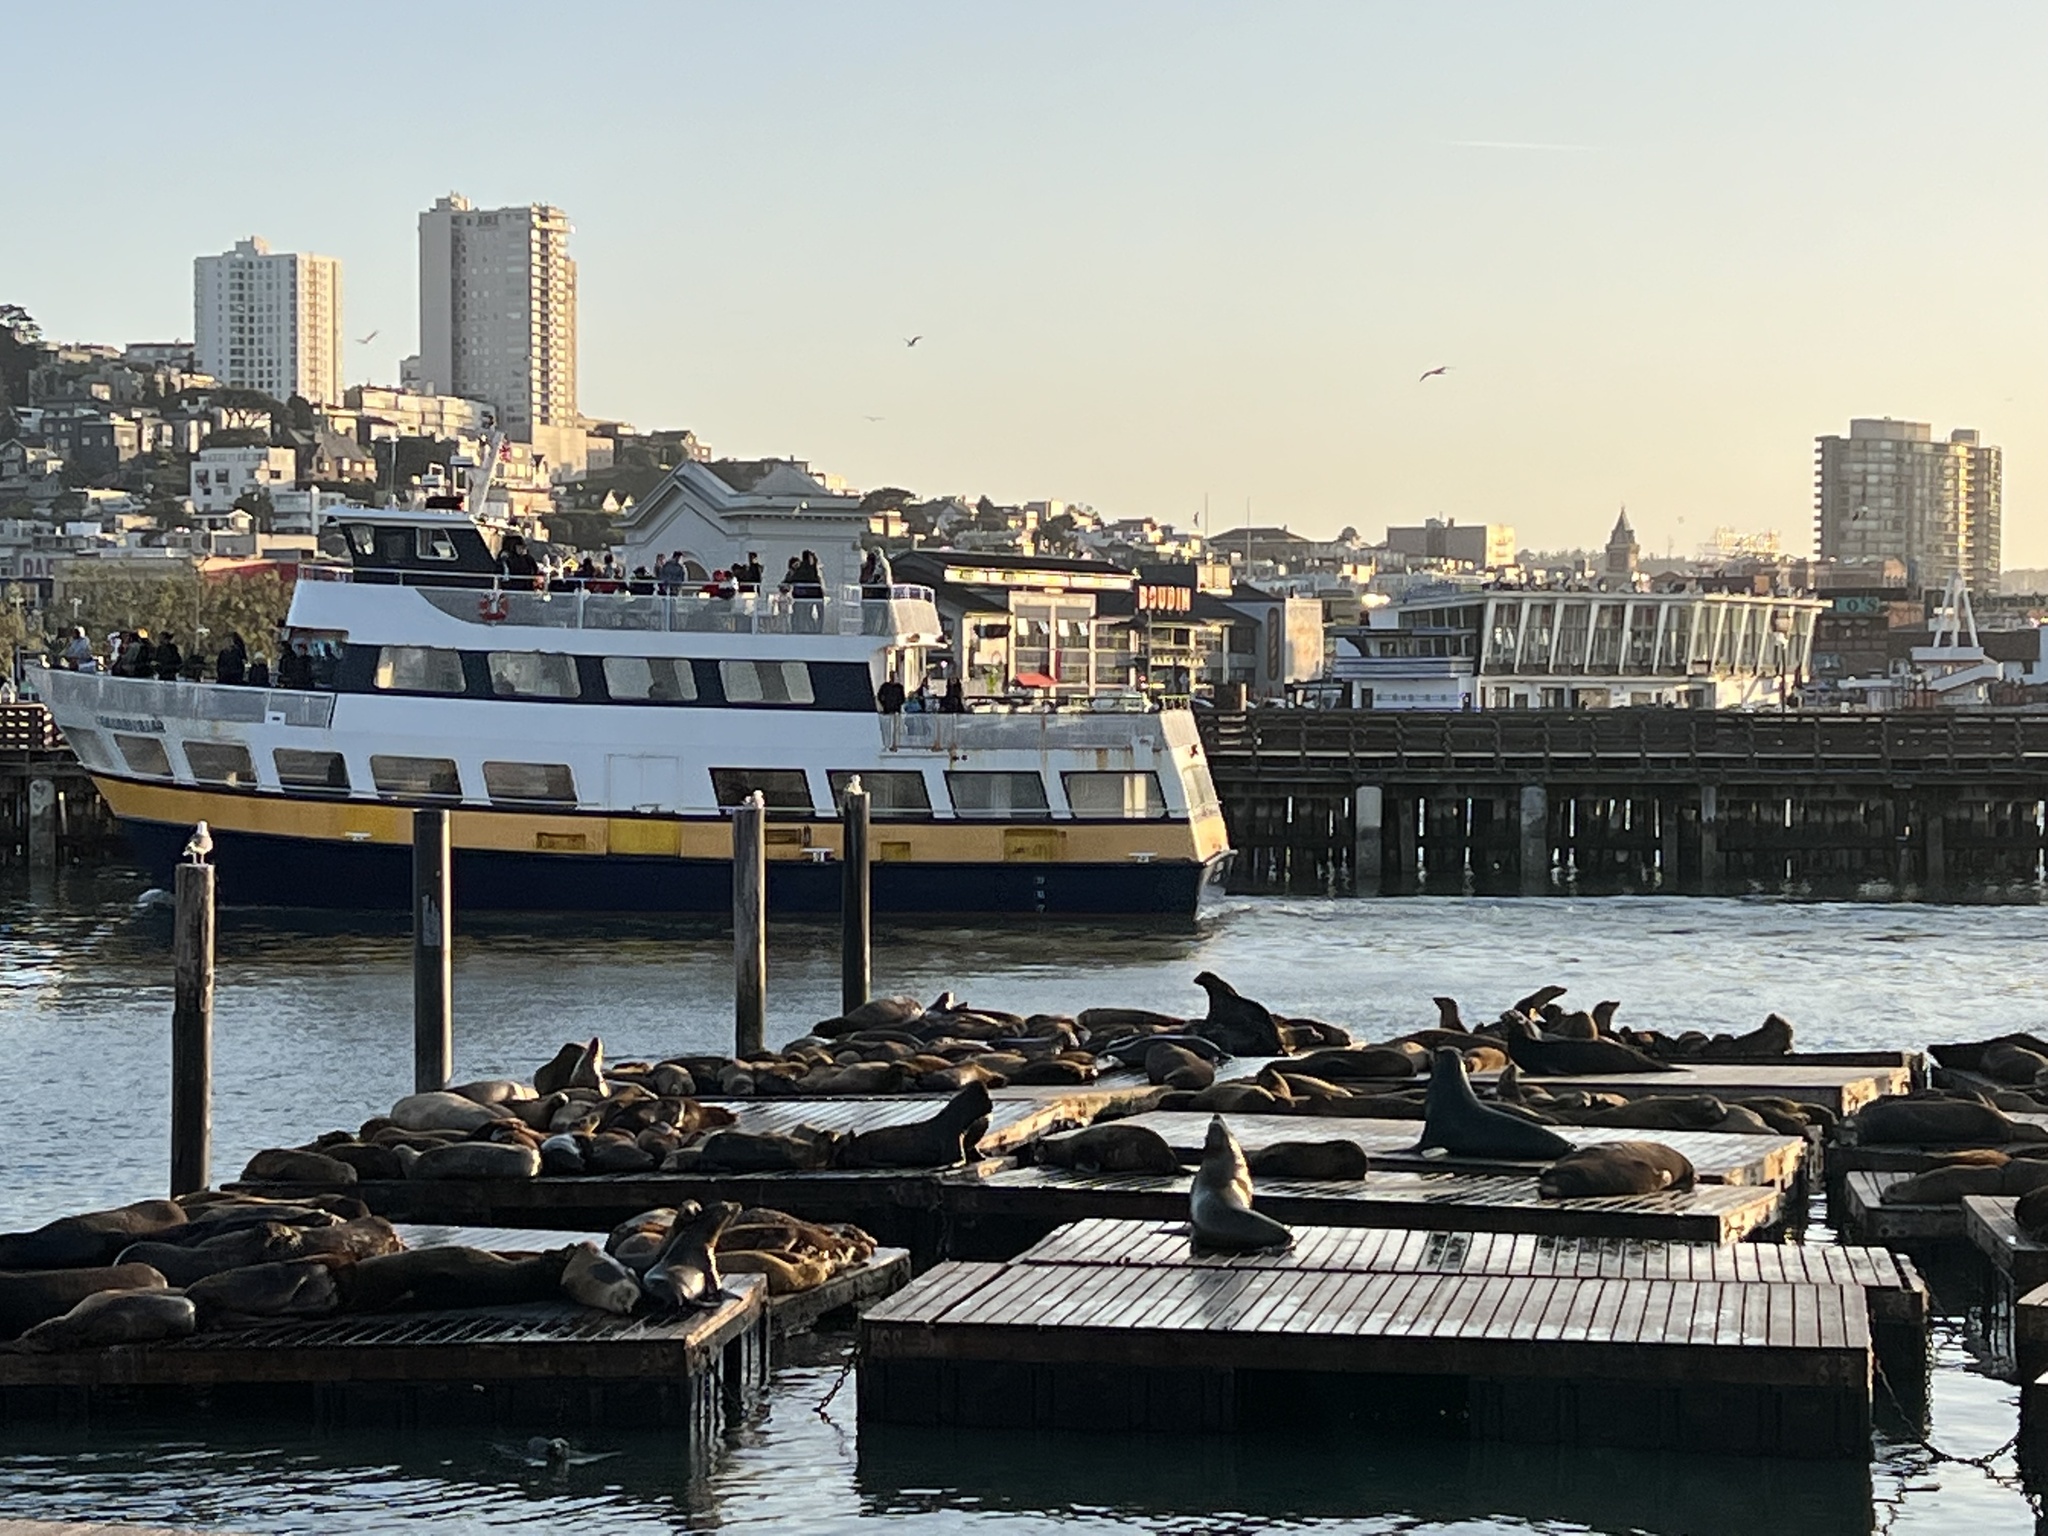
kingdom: Animalia
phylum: Chordata
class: Mammalia
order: Carnivora
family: Otariidae
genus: Zalophus
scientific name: Zalophus californianus
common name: California sea lion
